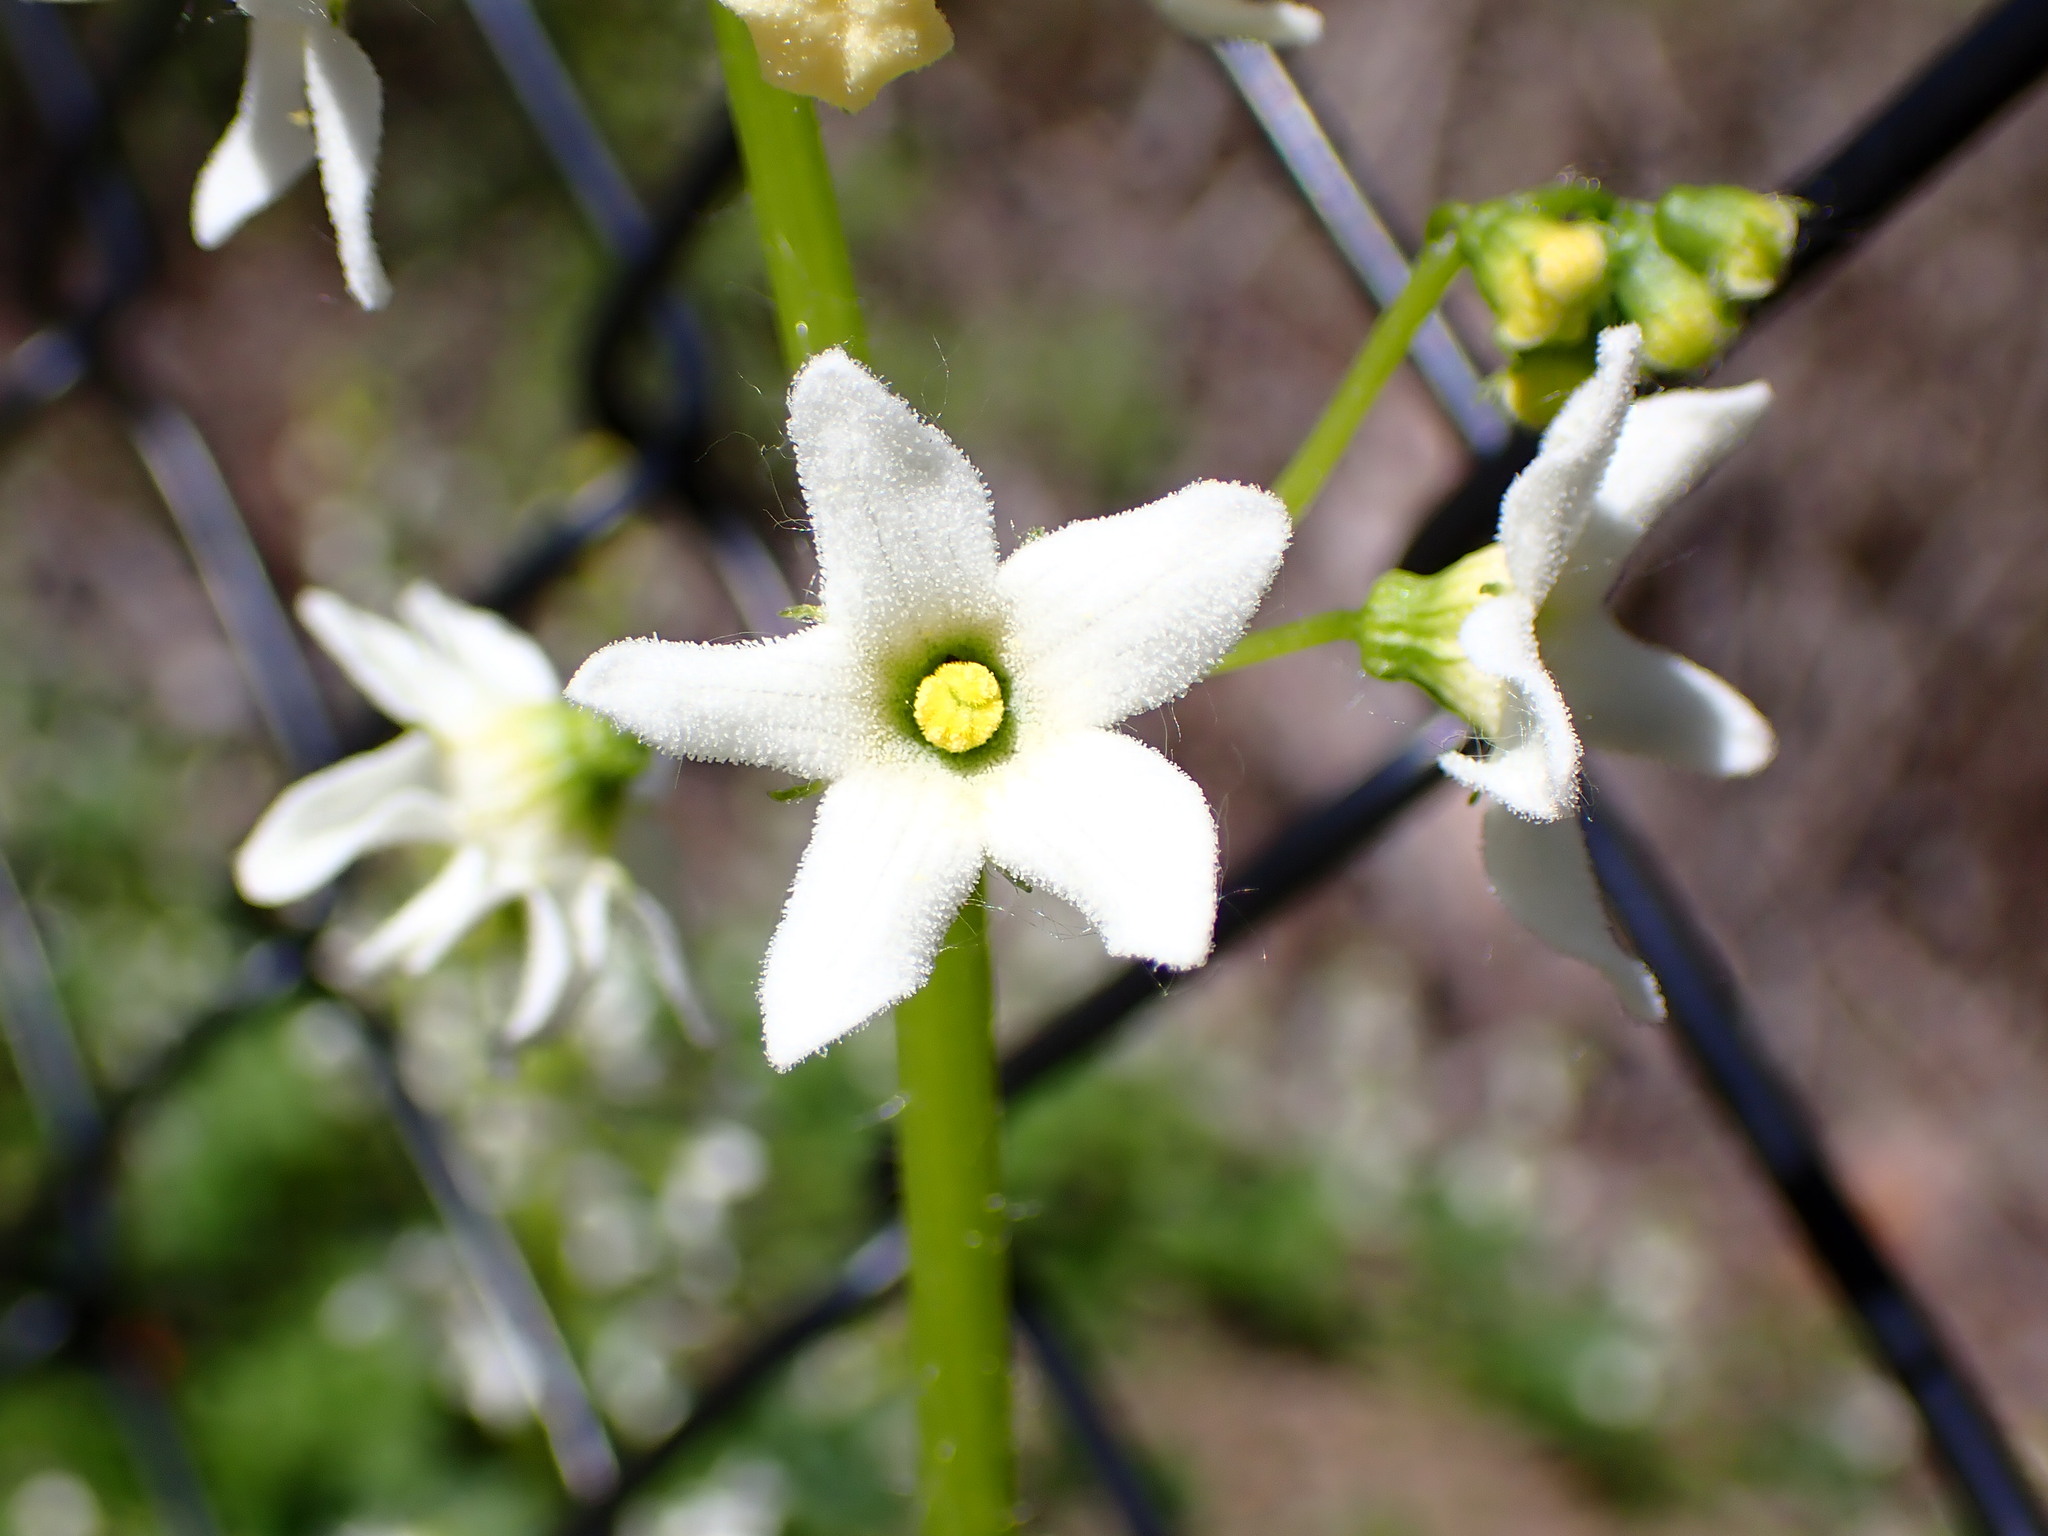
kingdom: Plantae
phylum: Tracheophyta
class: Magnoliopsida
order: Cucurbitales
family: Cucurbitaceae
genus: Marah
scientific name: Marah oregana
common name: Coastal manroot
